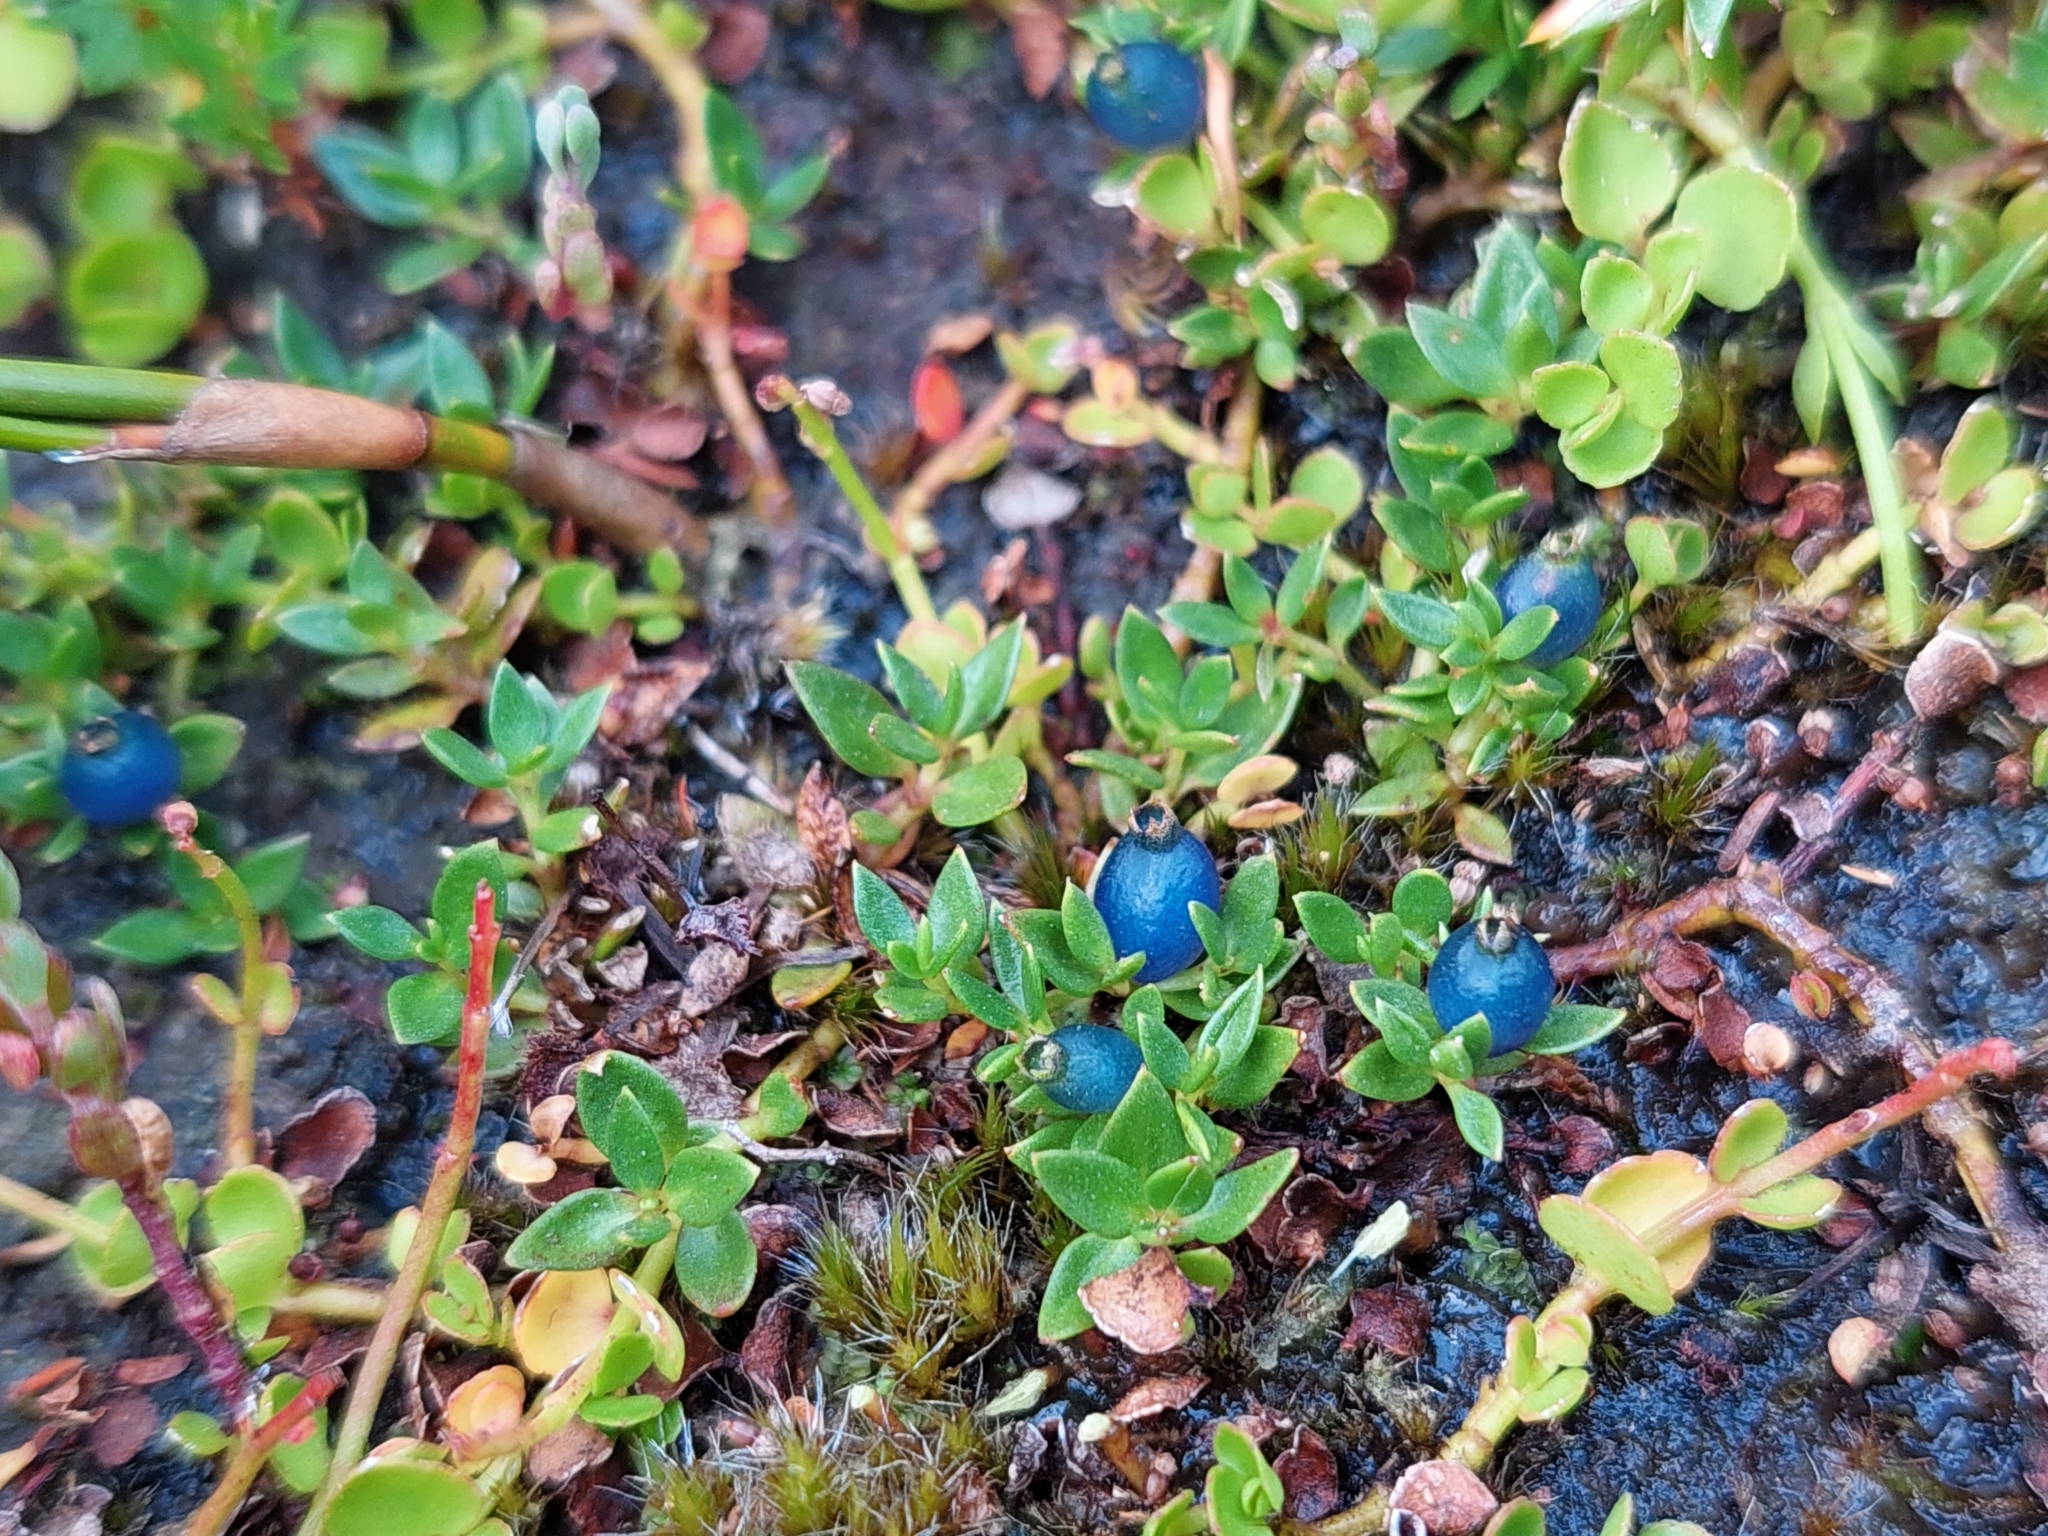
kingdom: Plantae
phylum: Tracheophyta
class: Magnoliopsida
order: Gentianales
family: Rubiaceae
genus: Coprosma
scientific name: Coprosma moorei
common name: Turquoise coprosma
